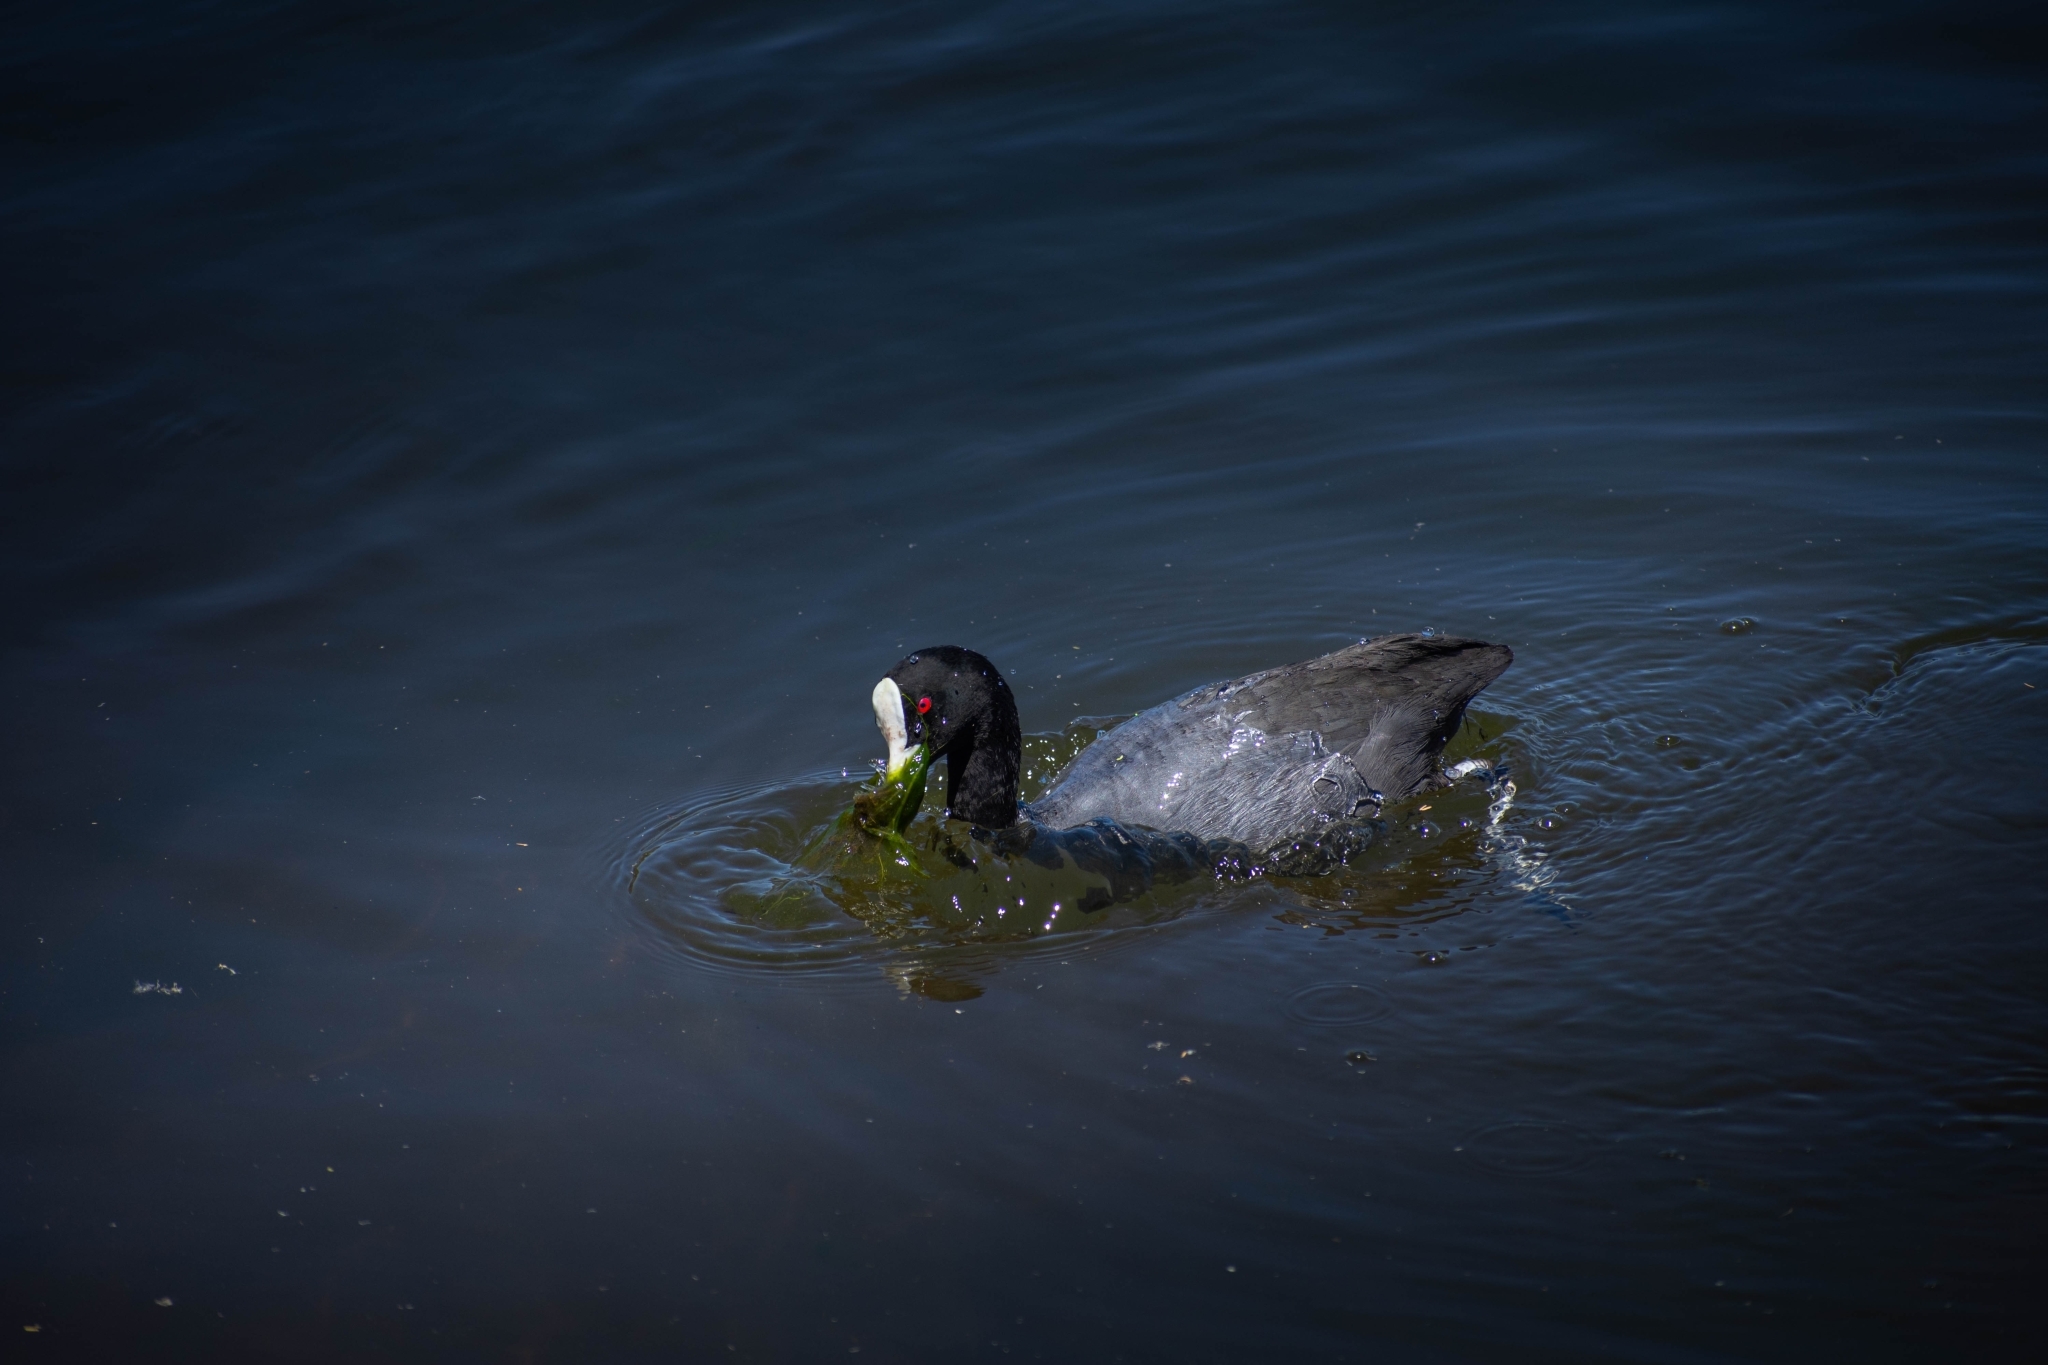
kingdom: Animalia
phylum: Chordata
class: Aves
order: Gruiformes
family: Rallidae
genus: Fulica
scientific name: Fulica atra
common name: Eurasian coot
